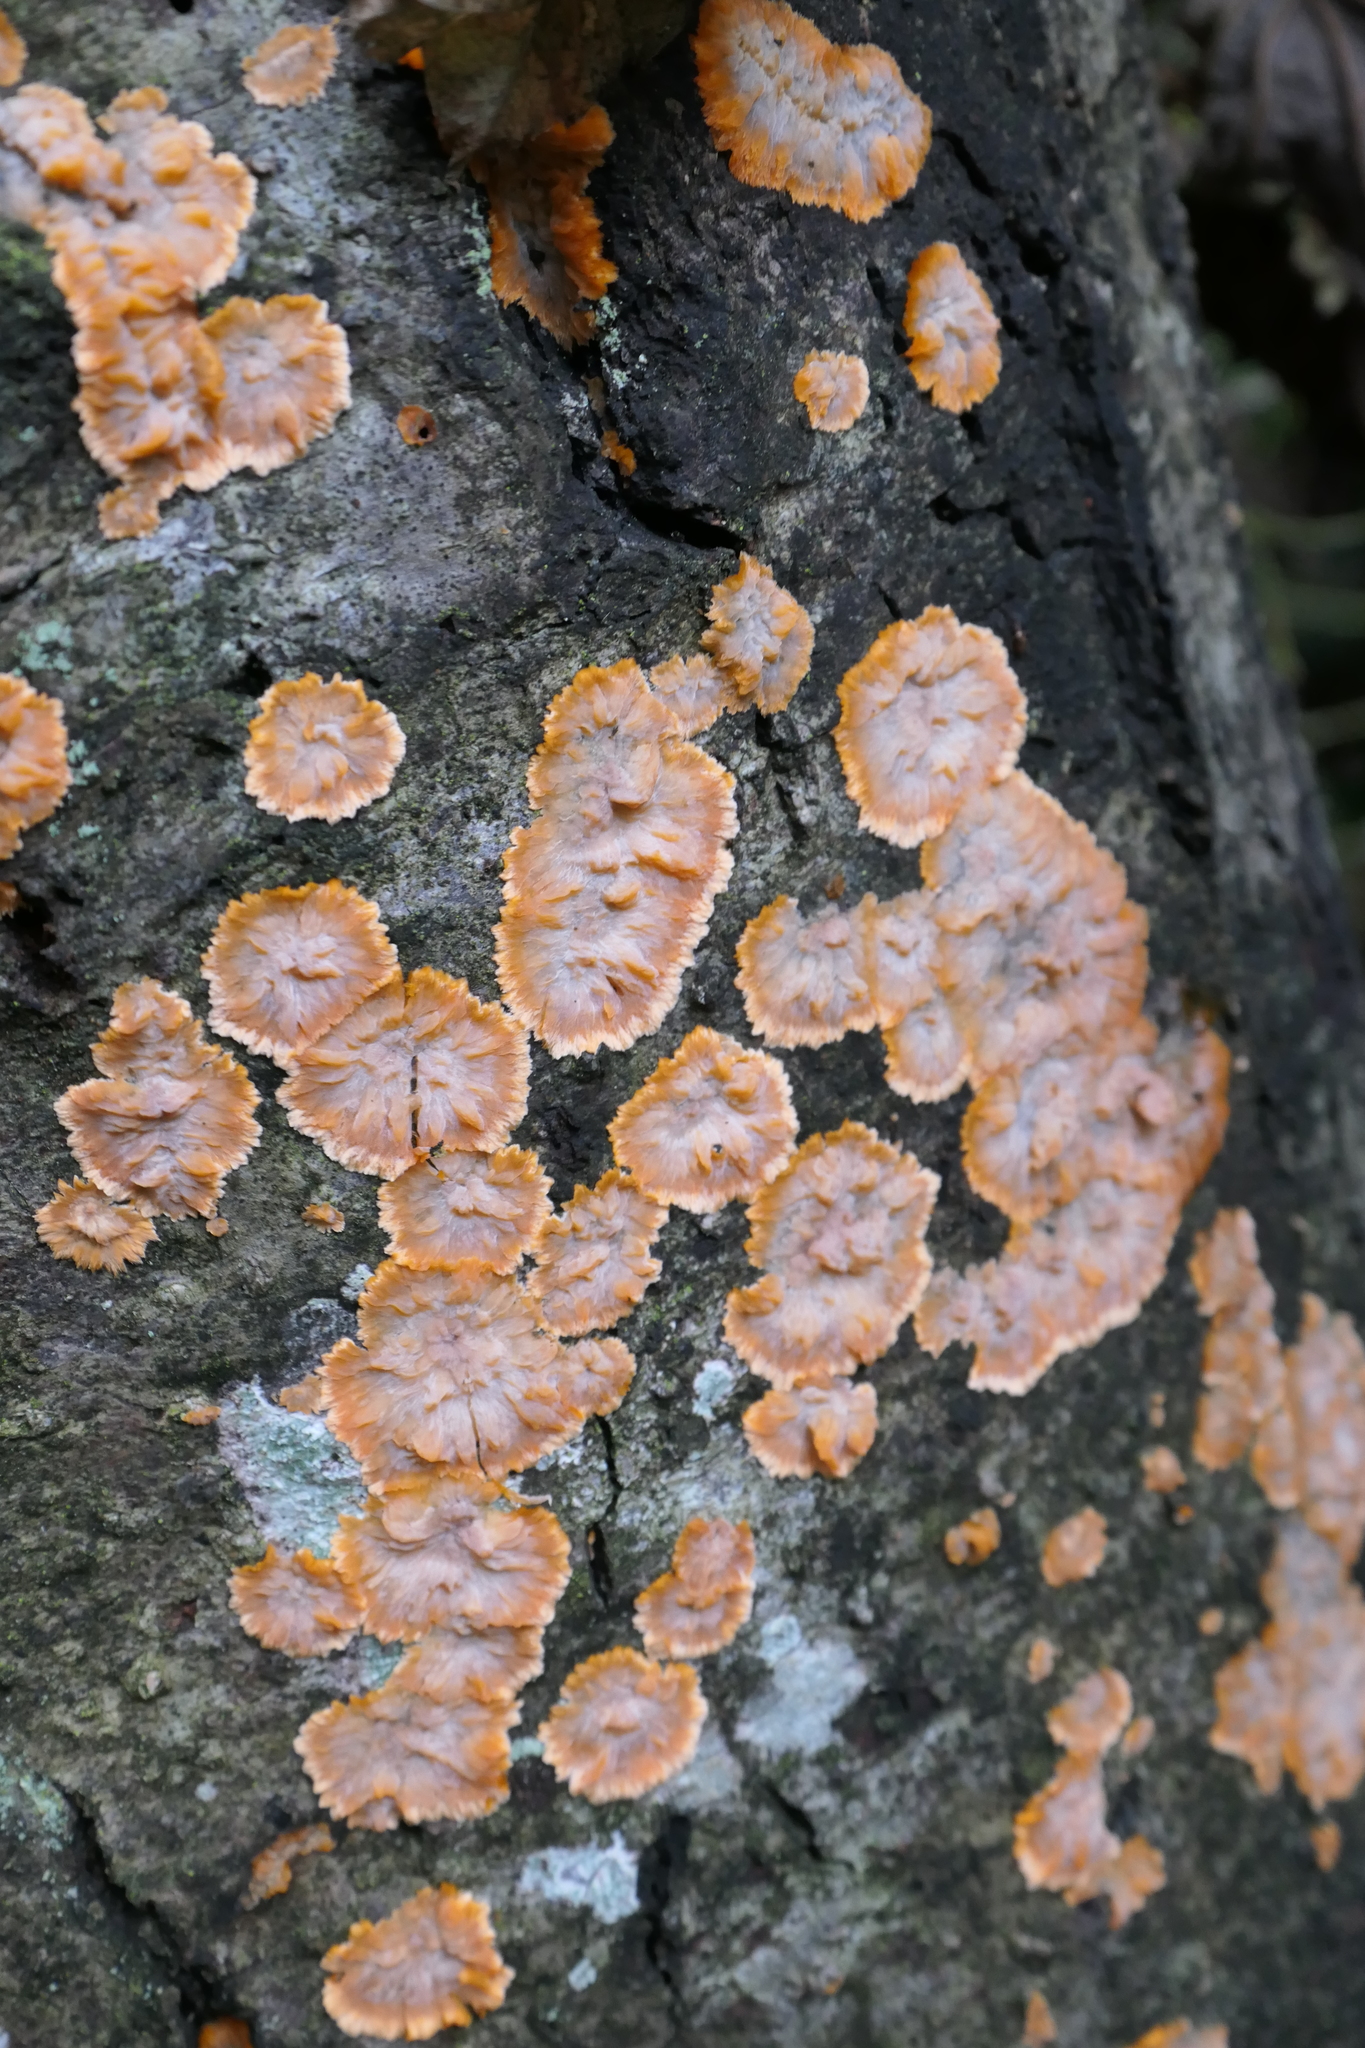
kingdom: Fungi
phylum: Basidiomycota
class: Agaricomycetes
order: Polyporales
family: Meruliaceae
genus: Phlebia
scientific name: Phlebia radiata
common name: Wrinkled crust
